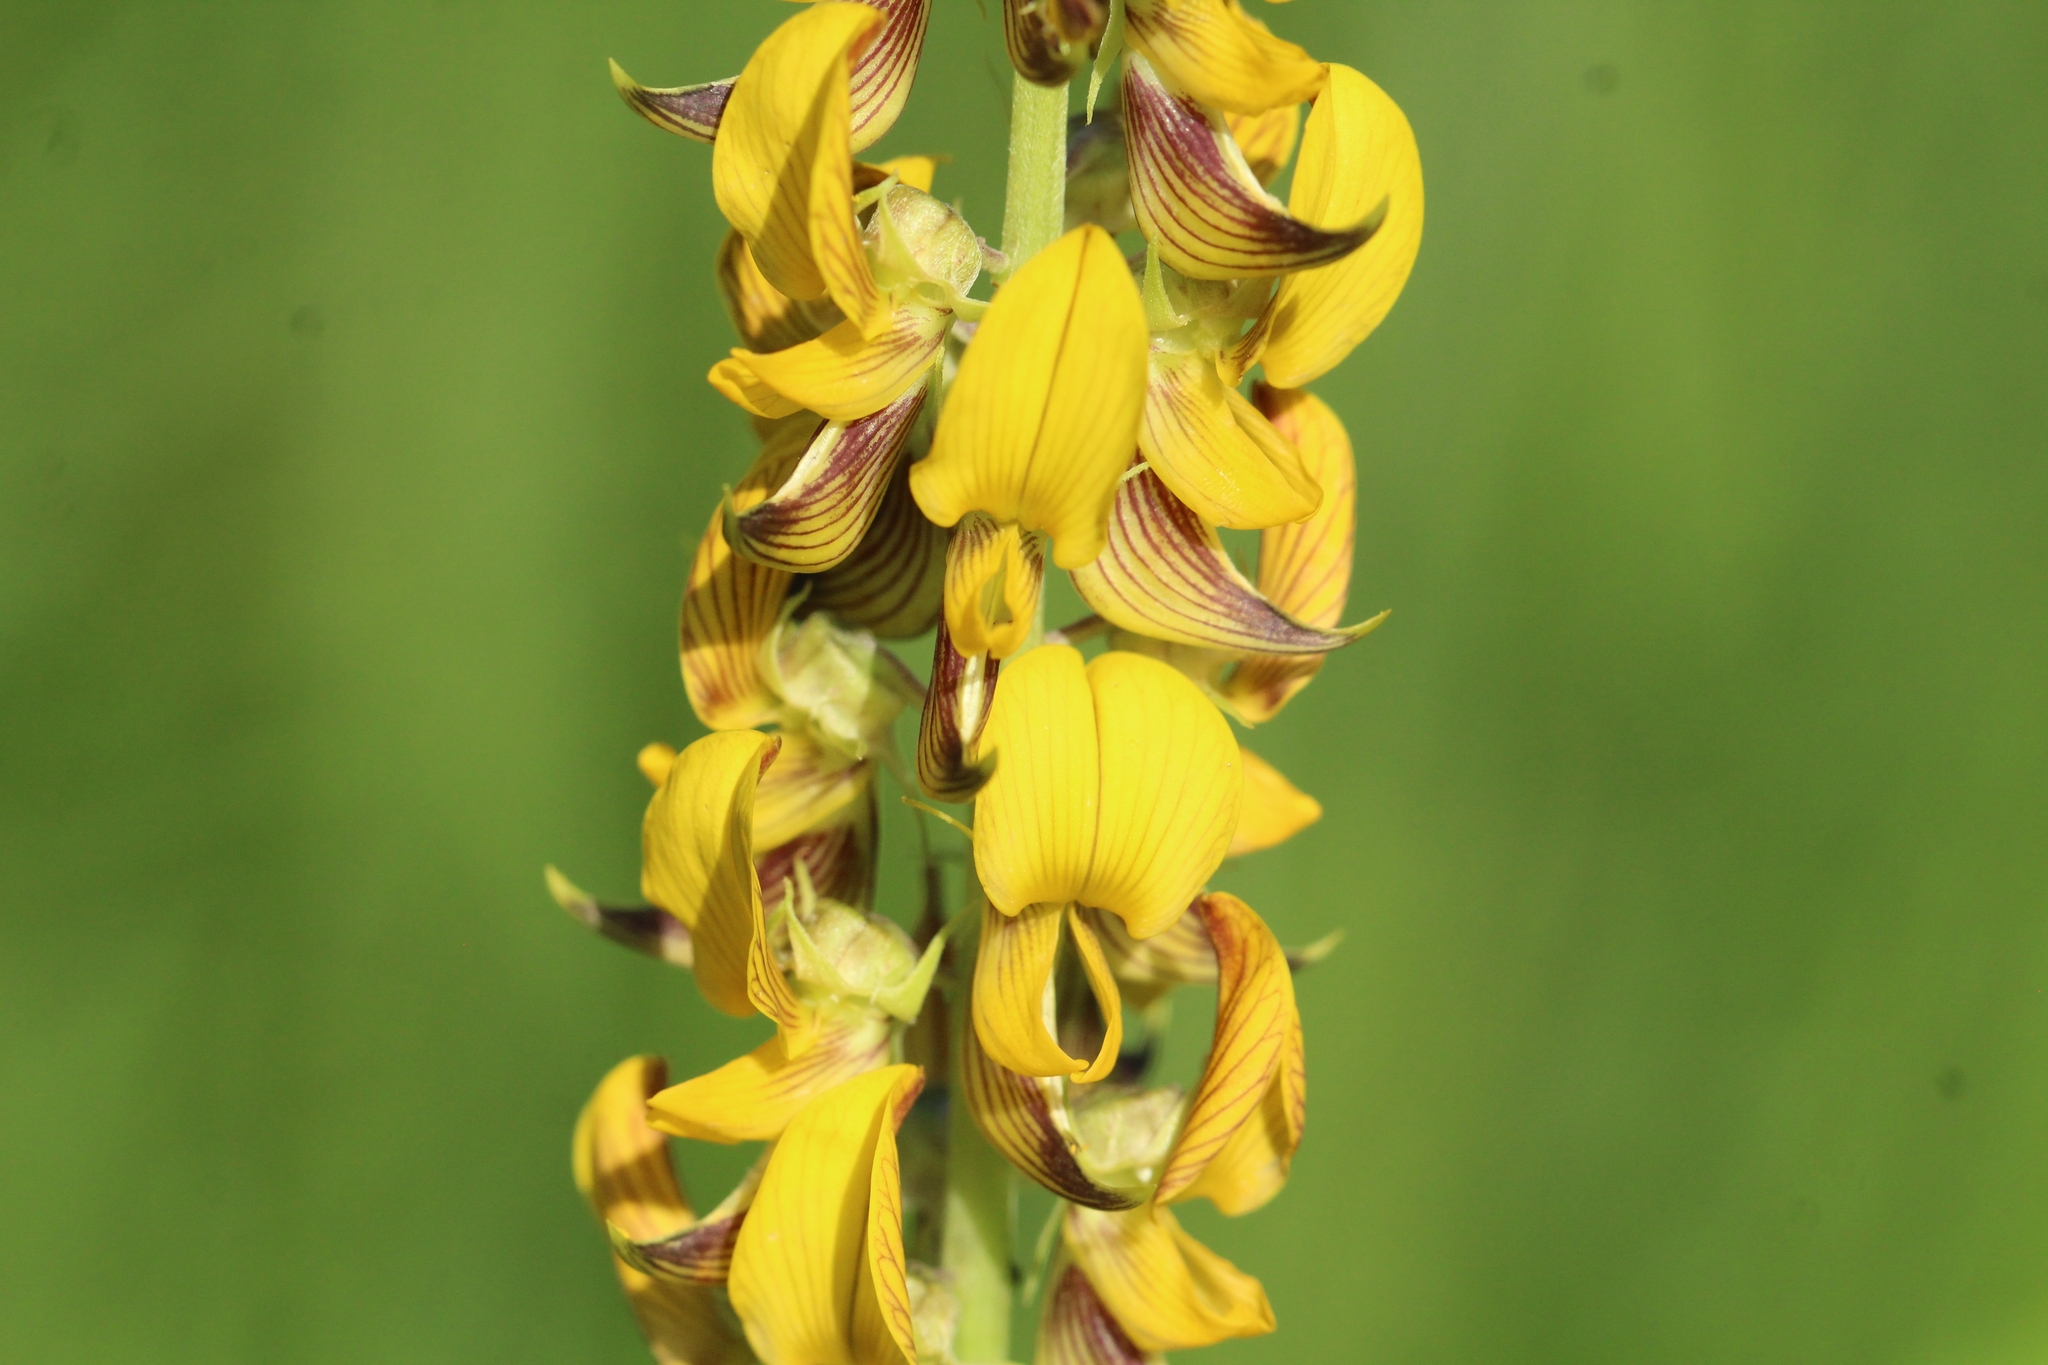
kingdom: Plantae
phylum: Tracheophyta
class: Magnoliopsida
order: Fabales
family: Fabaceae
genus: Crotalaria
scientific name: Crotalaria pallida
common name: Smooth rattlebox
